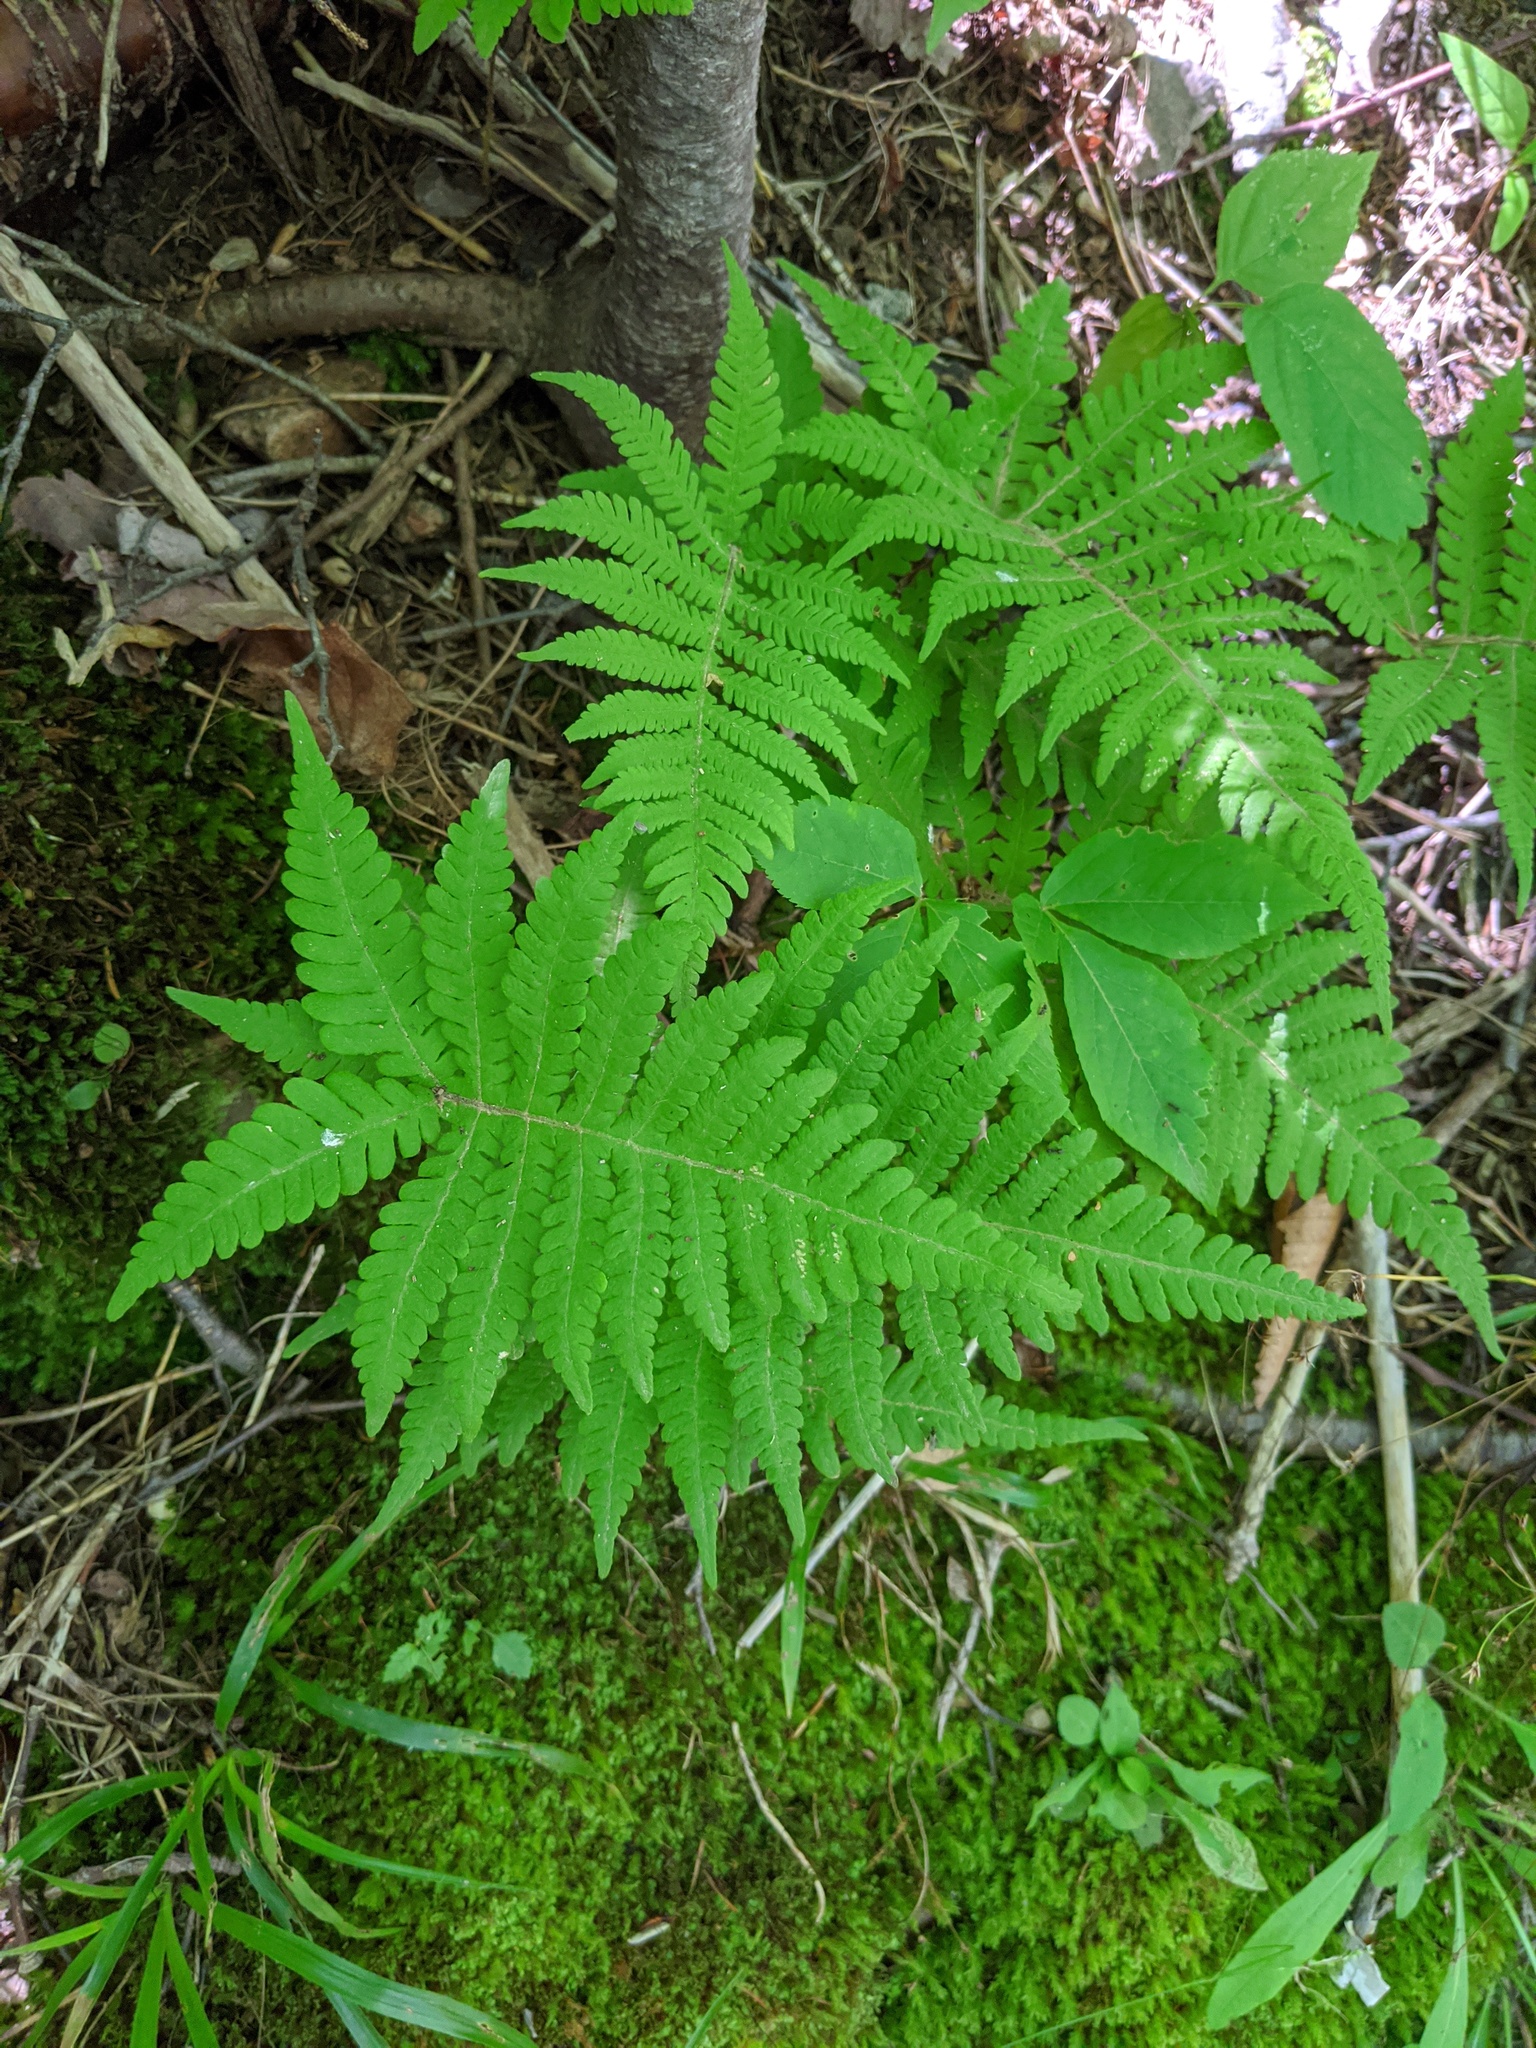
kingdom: Plantae
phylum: Tracheophyta
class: Polypodiopsida
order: Polypodiales
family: Thelypteridaceae
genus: Phegopteris
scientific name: Phegopteris connectilis
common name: Beech fern
